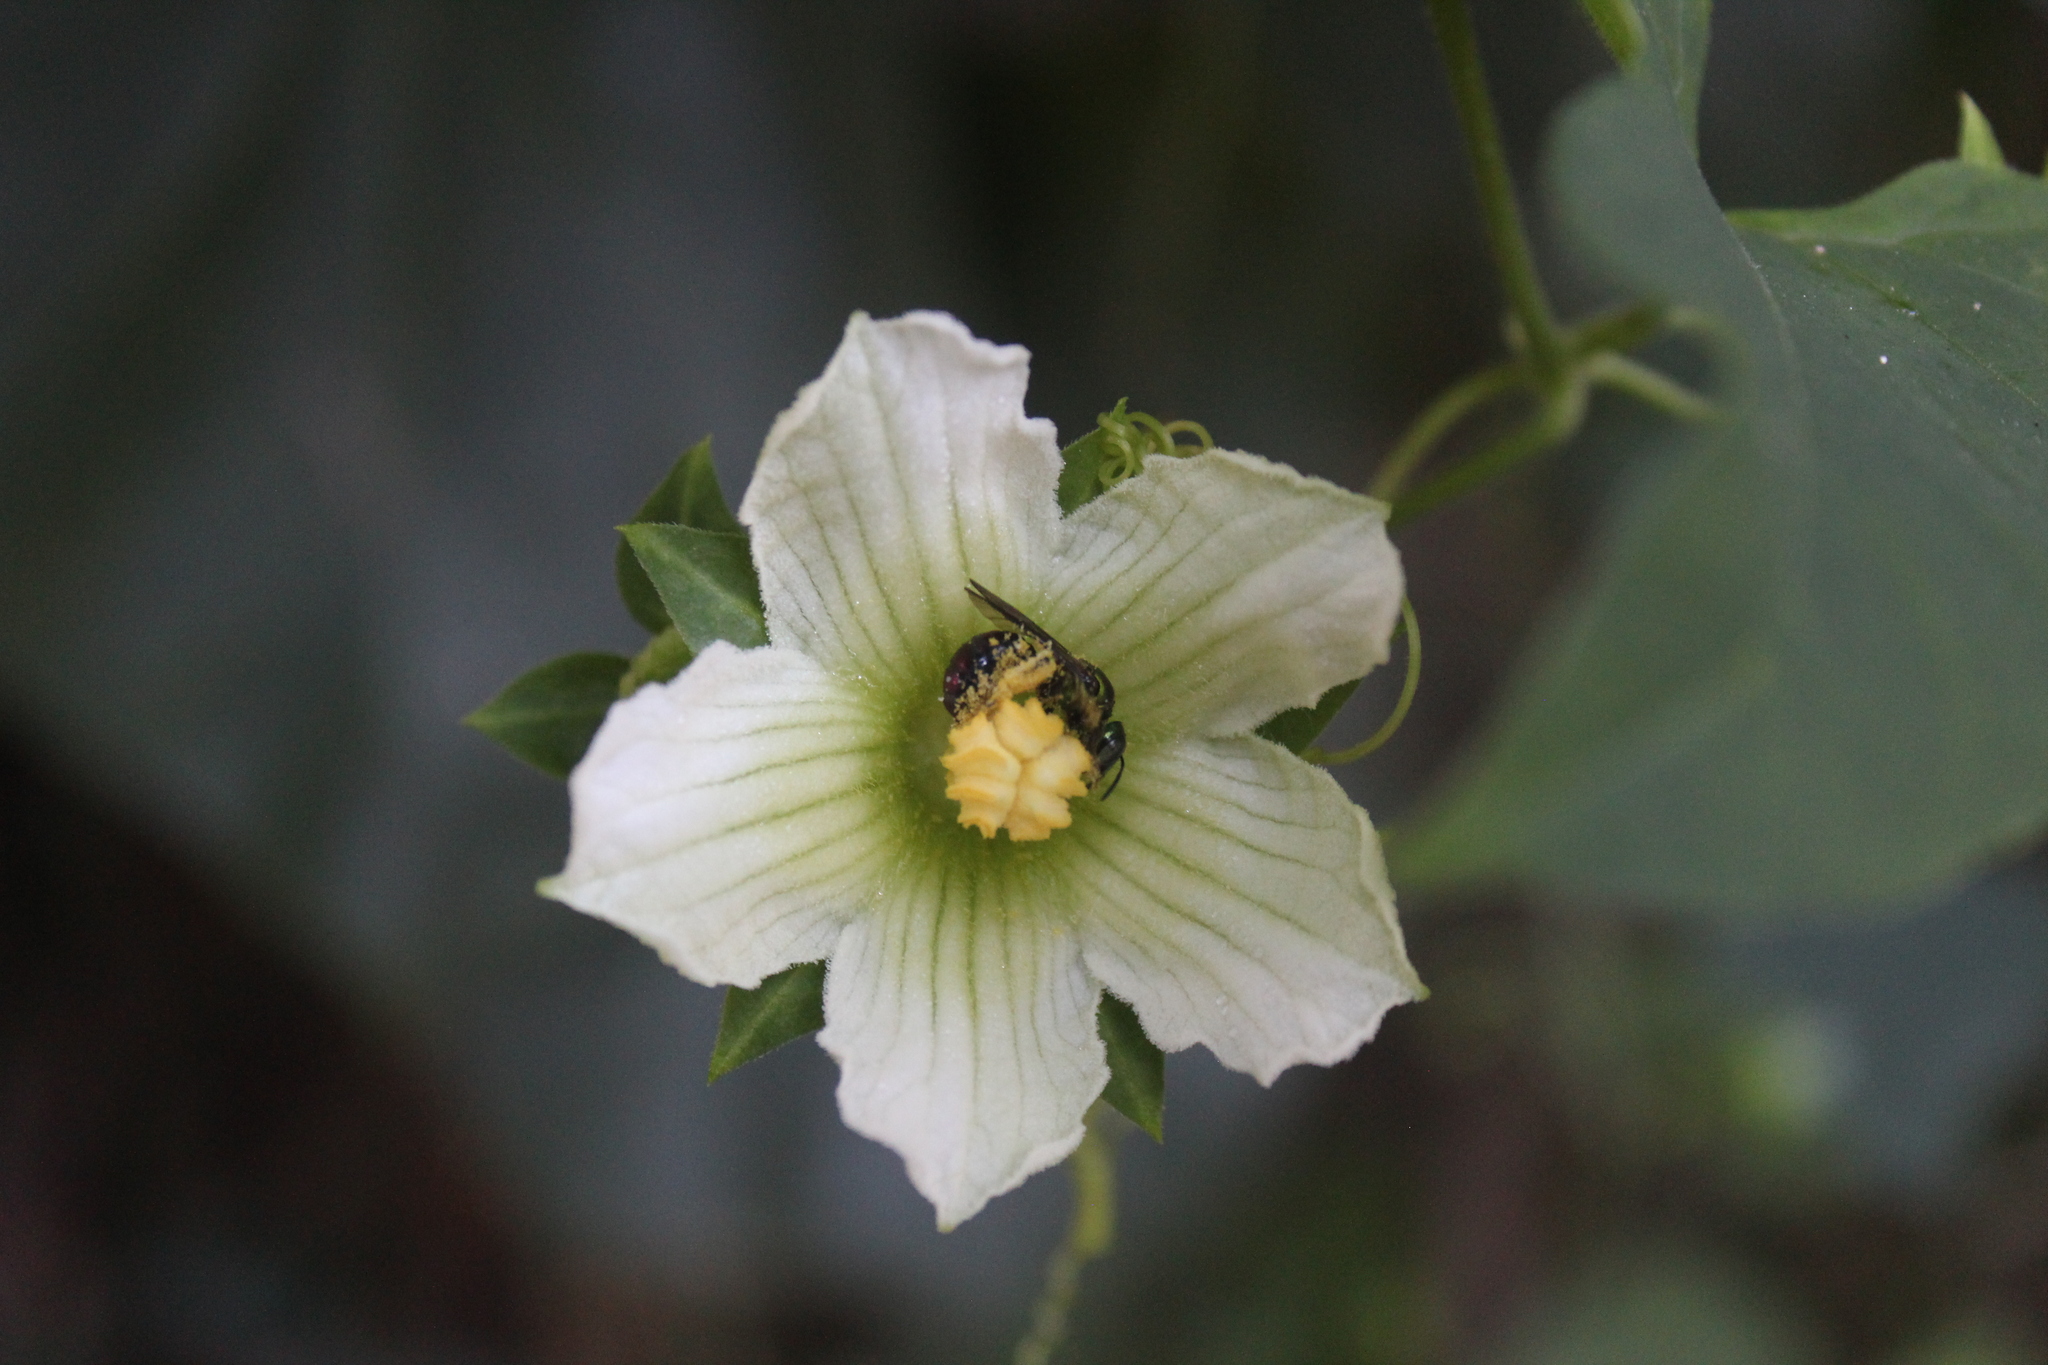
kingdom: Animalia
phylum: Arthropoda
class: Insecta
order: Hymenoptera
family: Apidae
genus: Ceratina
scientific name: Ceratina eximia
